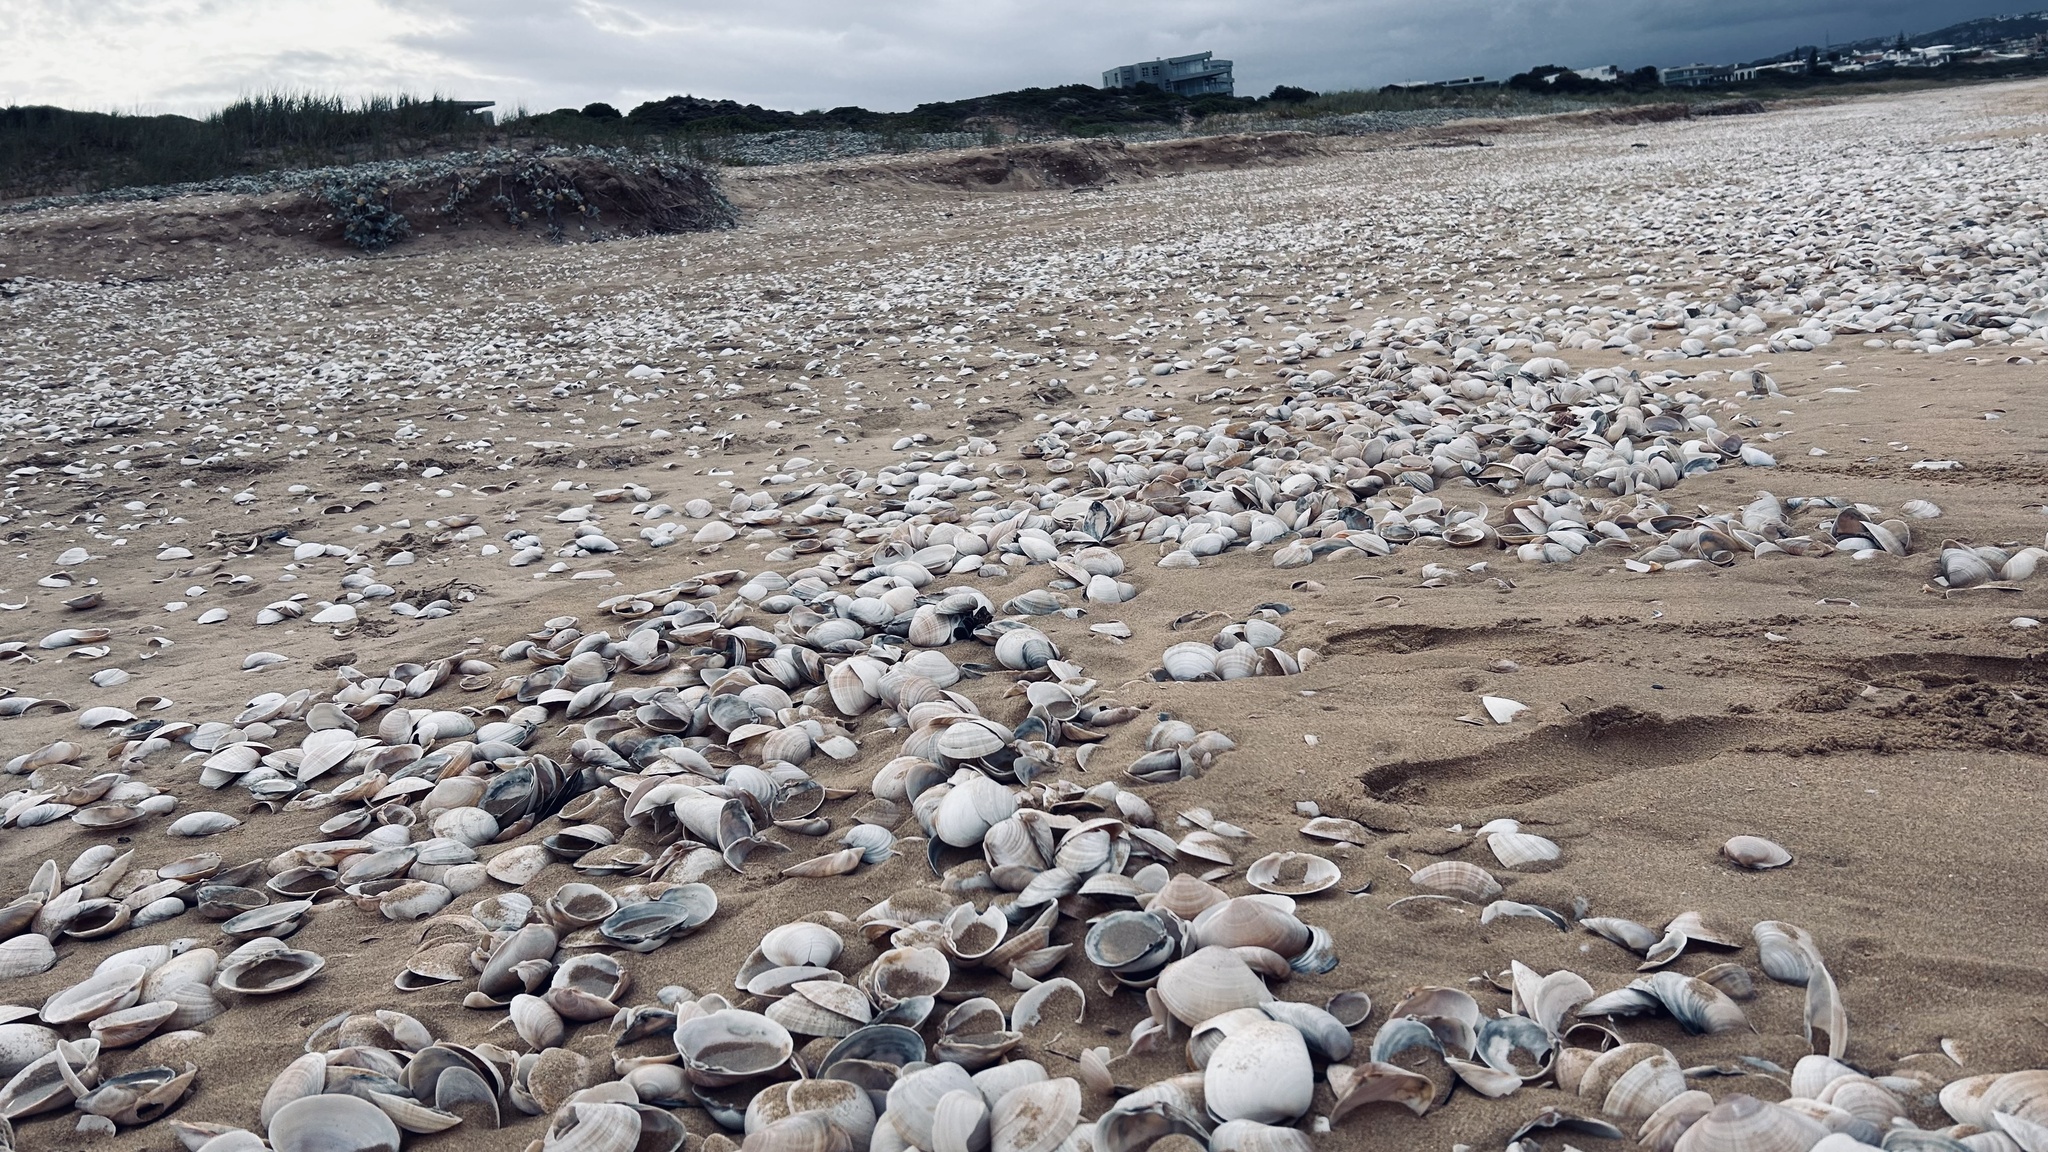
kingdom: Animalia
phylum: Mollusca
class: Bivalvia
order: Venerida
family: Veneridae
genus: Venerupis
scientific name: Venerupis corrugata
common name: Pullet carpet shell
